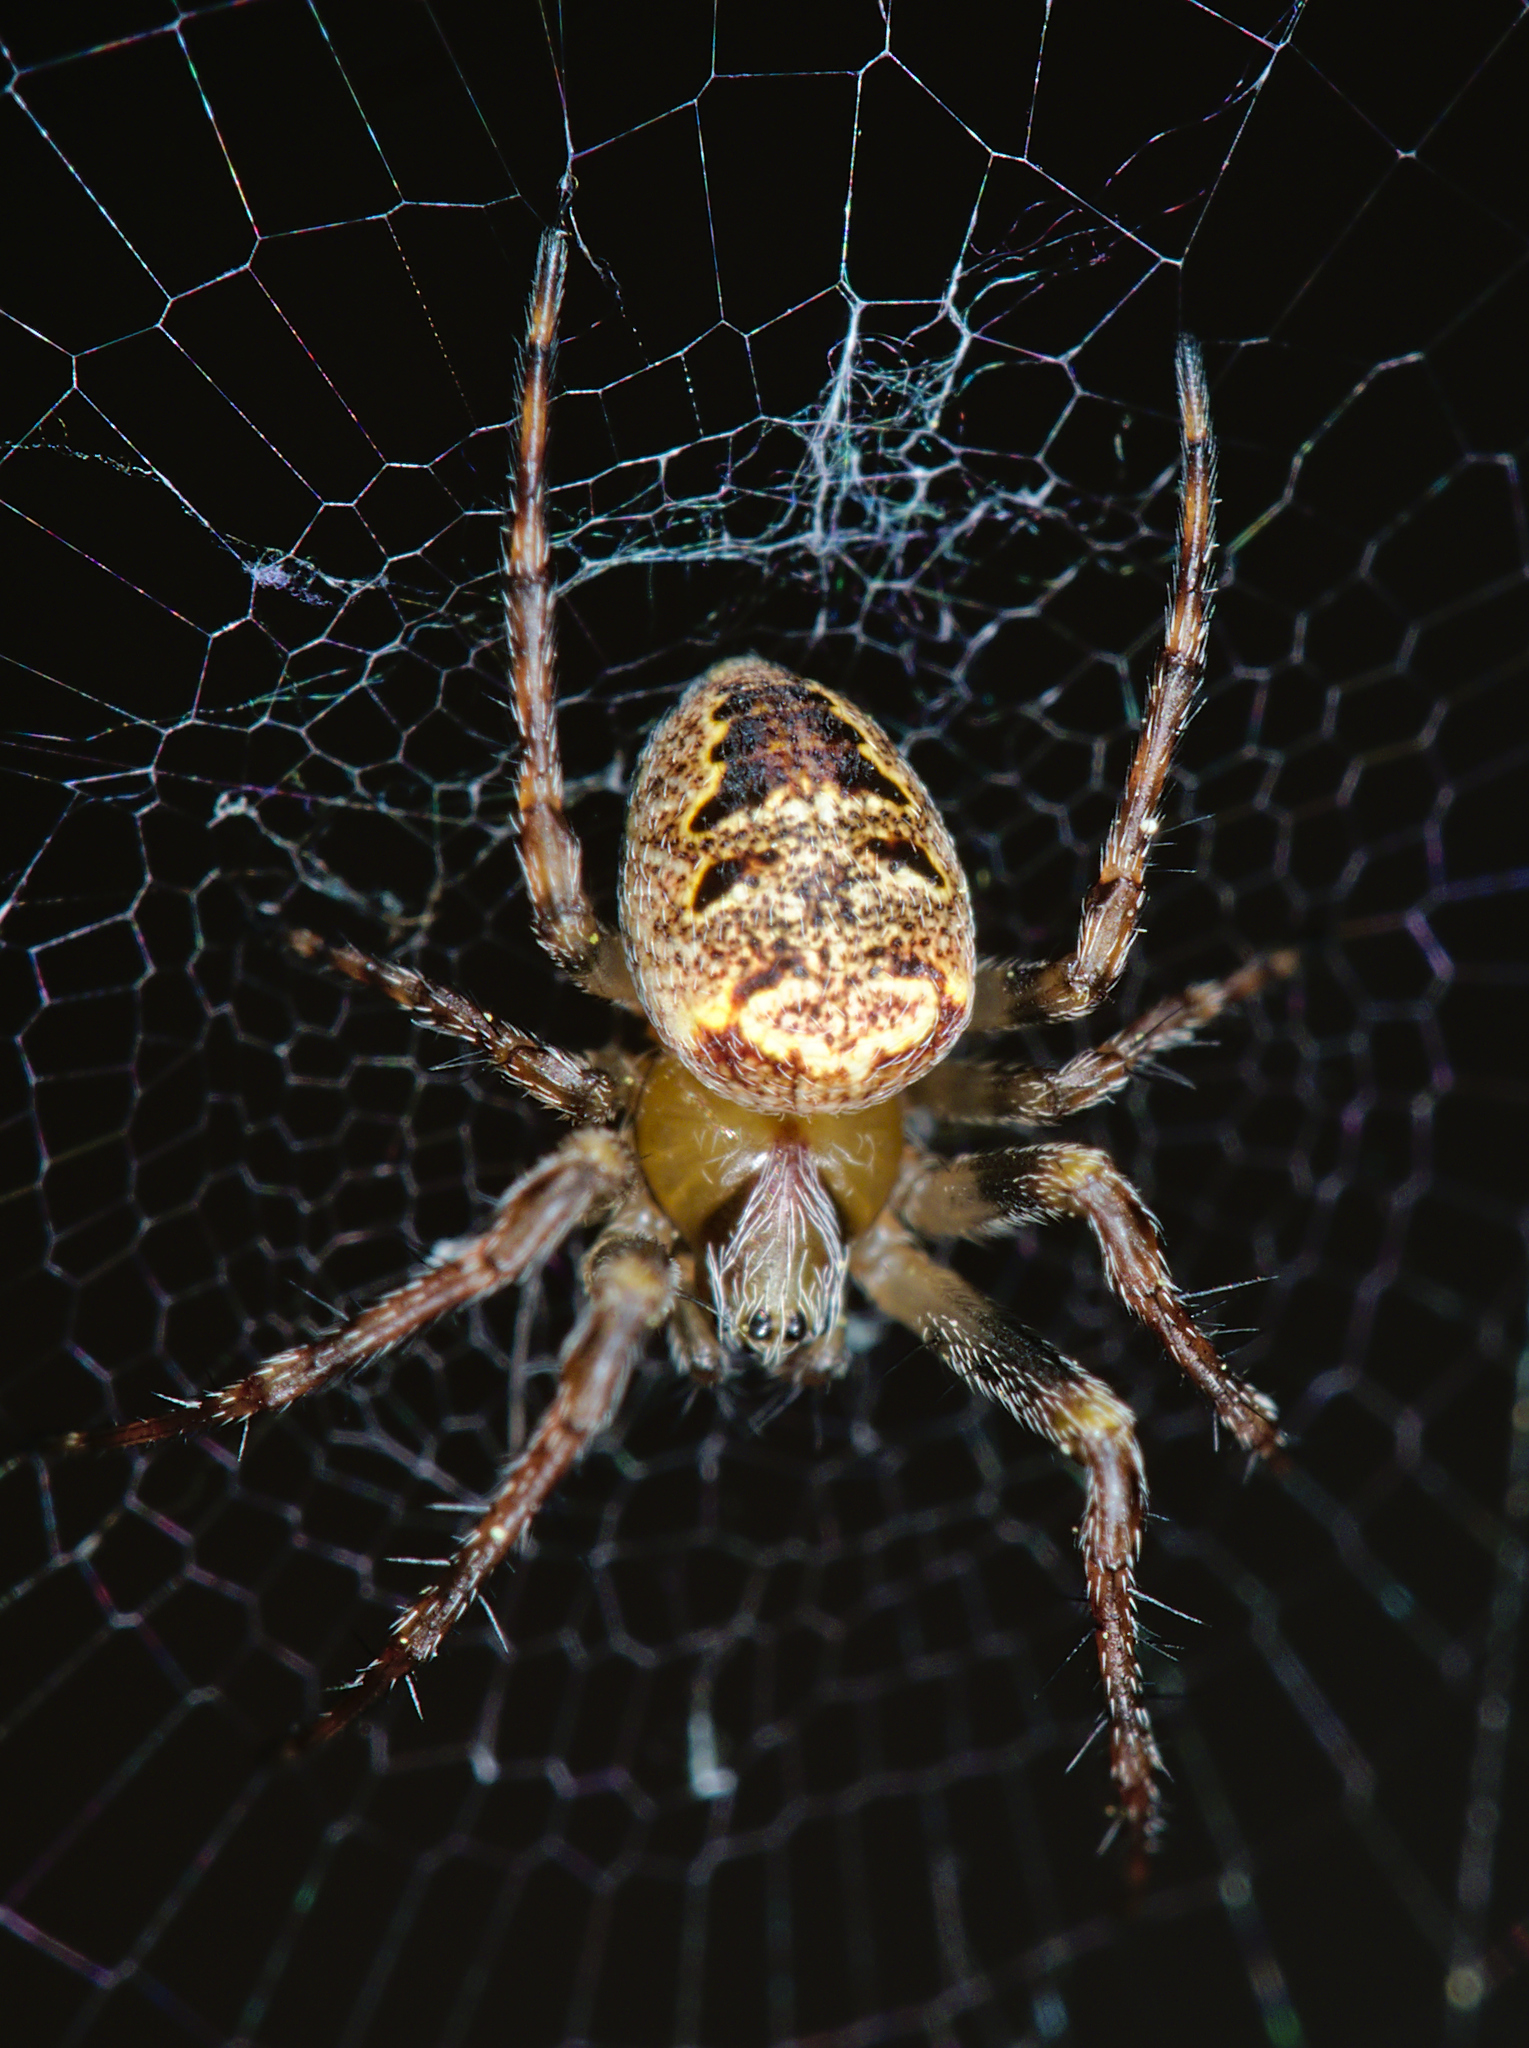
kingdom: Animalia
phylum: Arthropoda
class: Arachnida
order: Araneae
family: Araneidae
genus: Zilla
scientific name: Zilla diodia
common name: Zilla diodia
